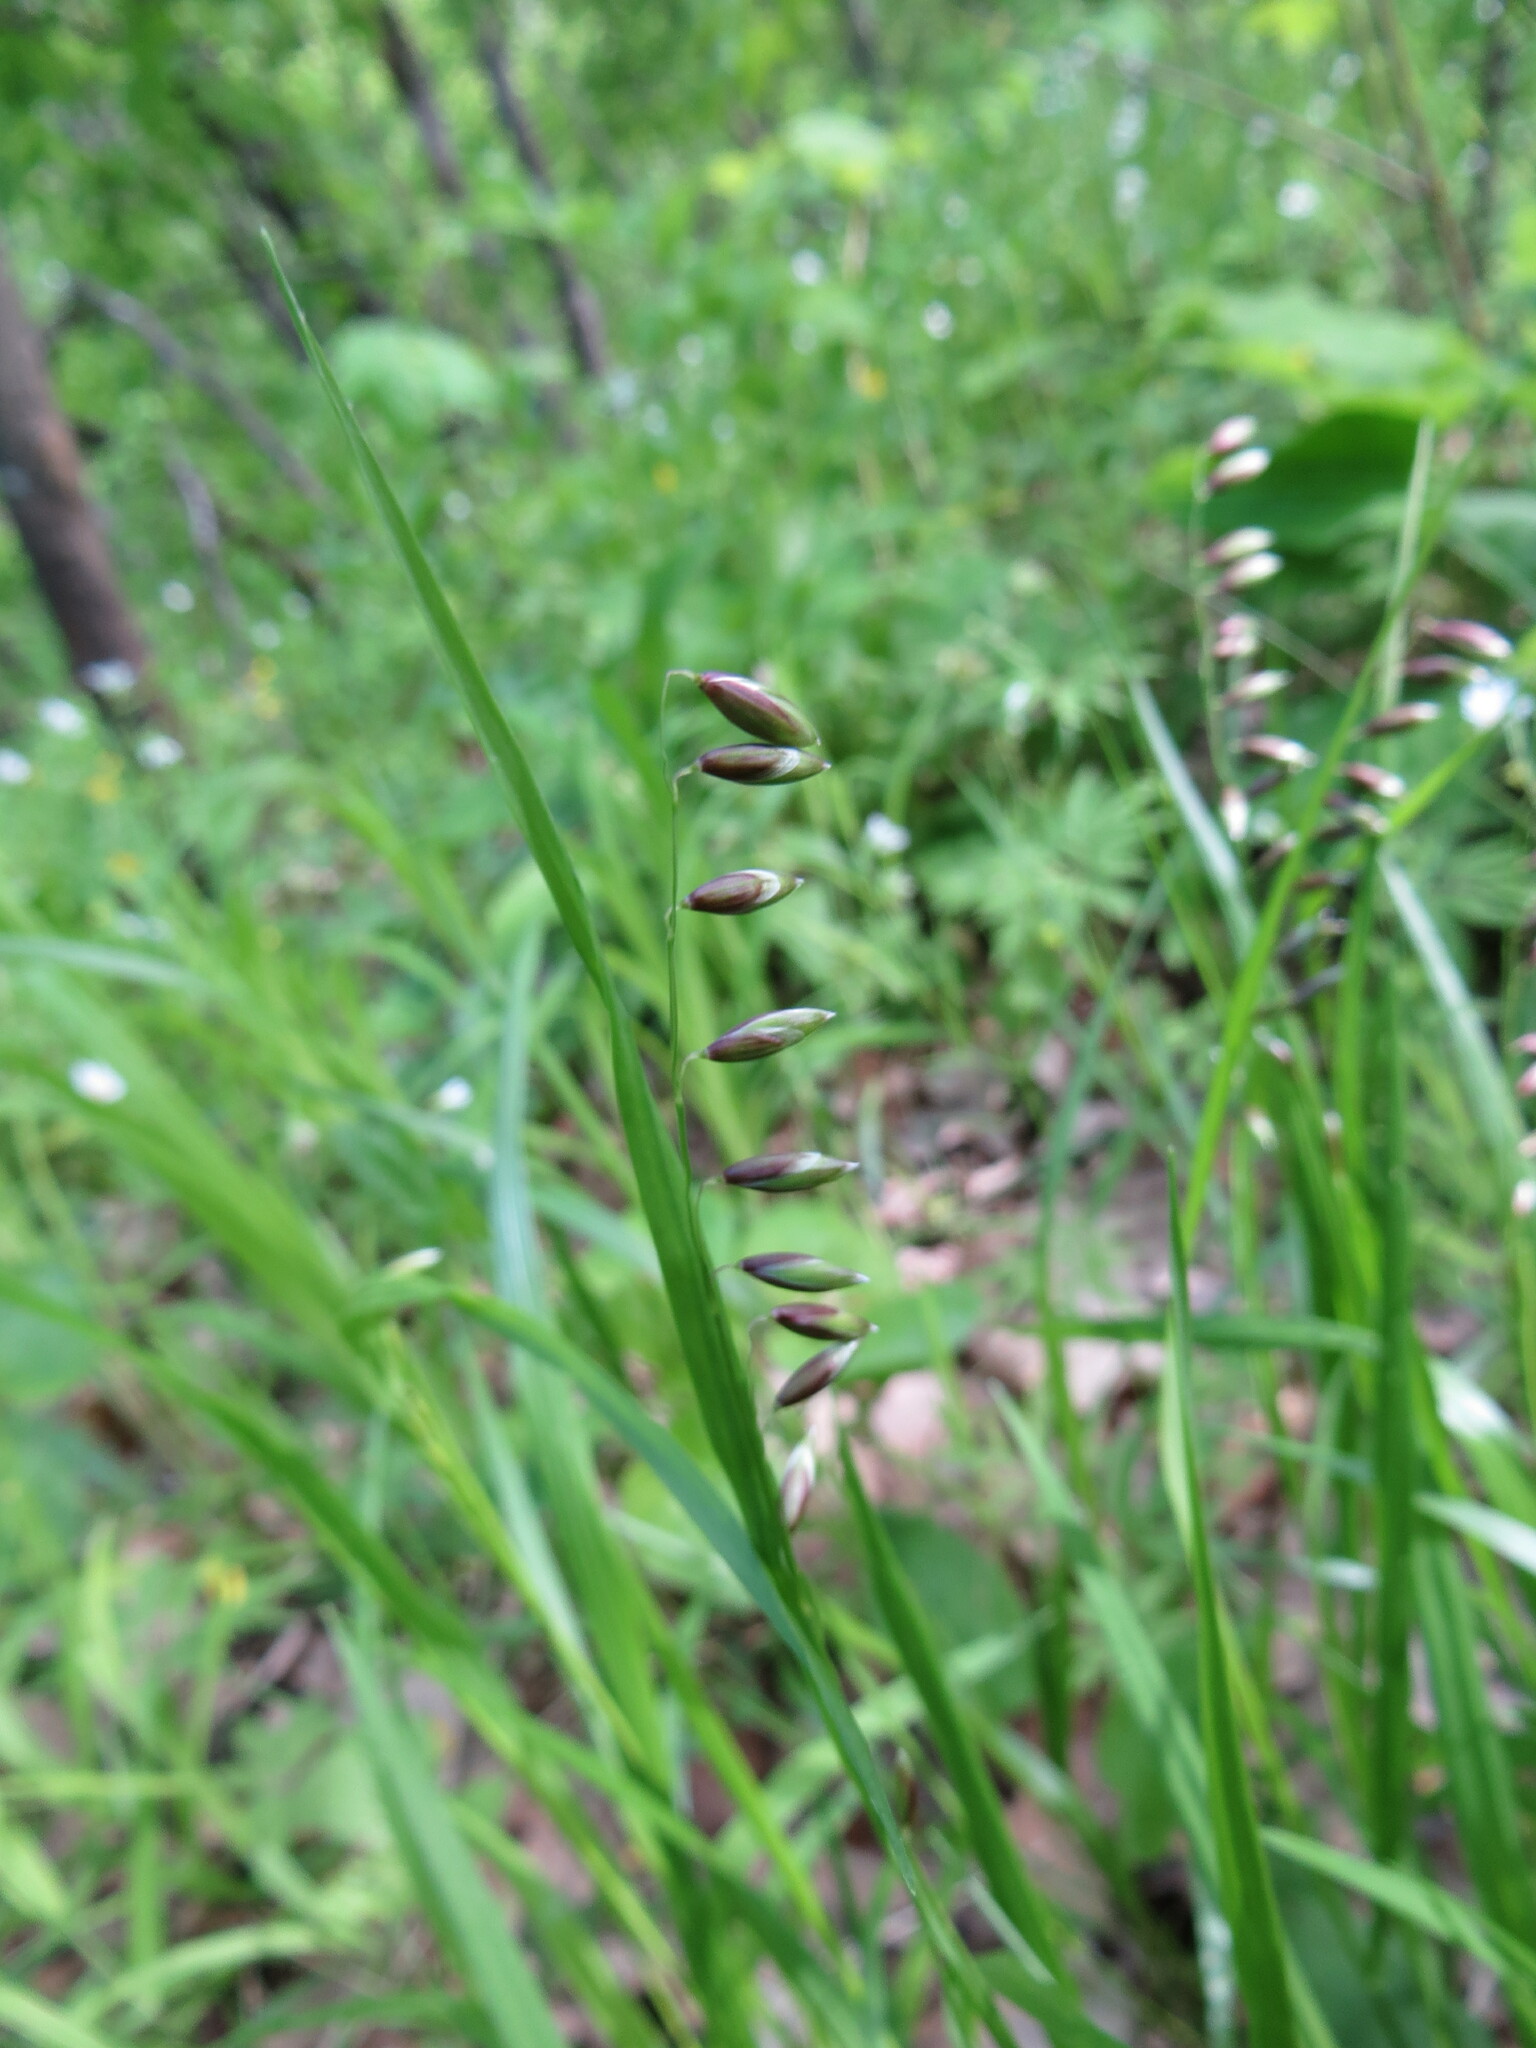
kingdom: Plantae
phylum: Tracheophyta
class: Liliopsida
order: Poales
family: Poaceae
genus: Melica
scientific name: Melica nutans
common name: Mountain melick
